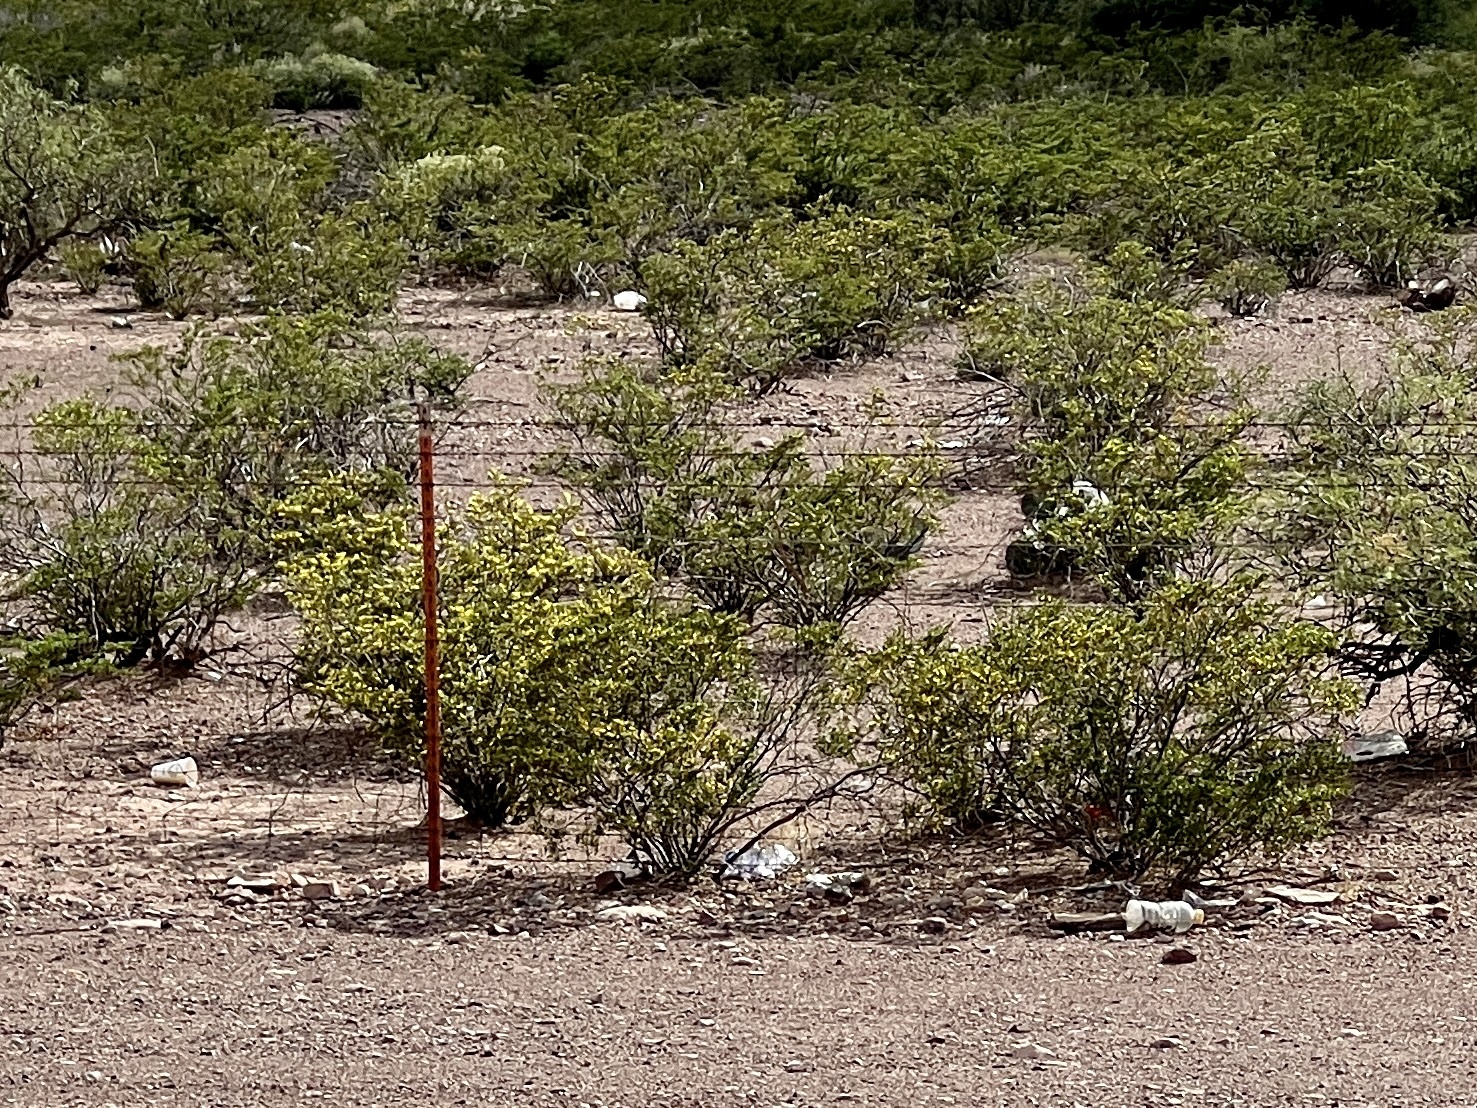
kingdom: Plantae
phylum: Tracheophyta
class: Magnoliopsida
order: Zygophyllales
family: Zygophyllaceae
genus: Larrea
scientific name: Larrea tridentata
